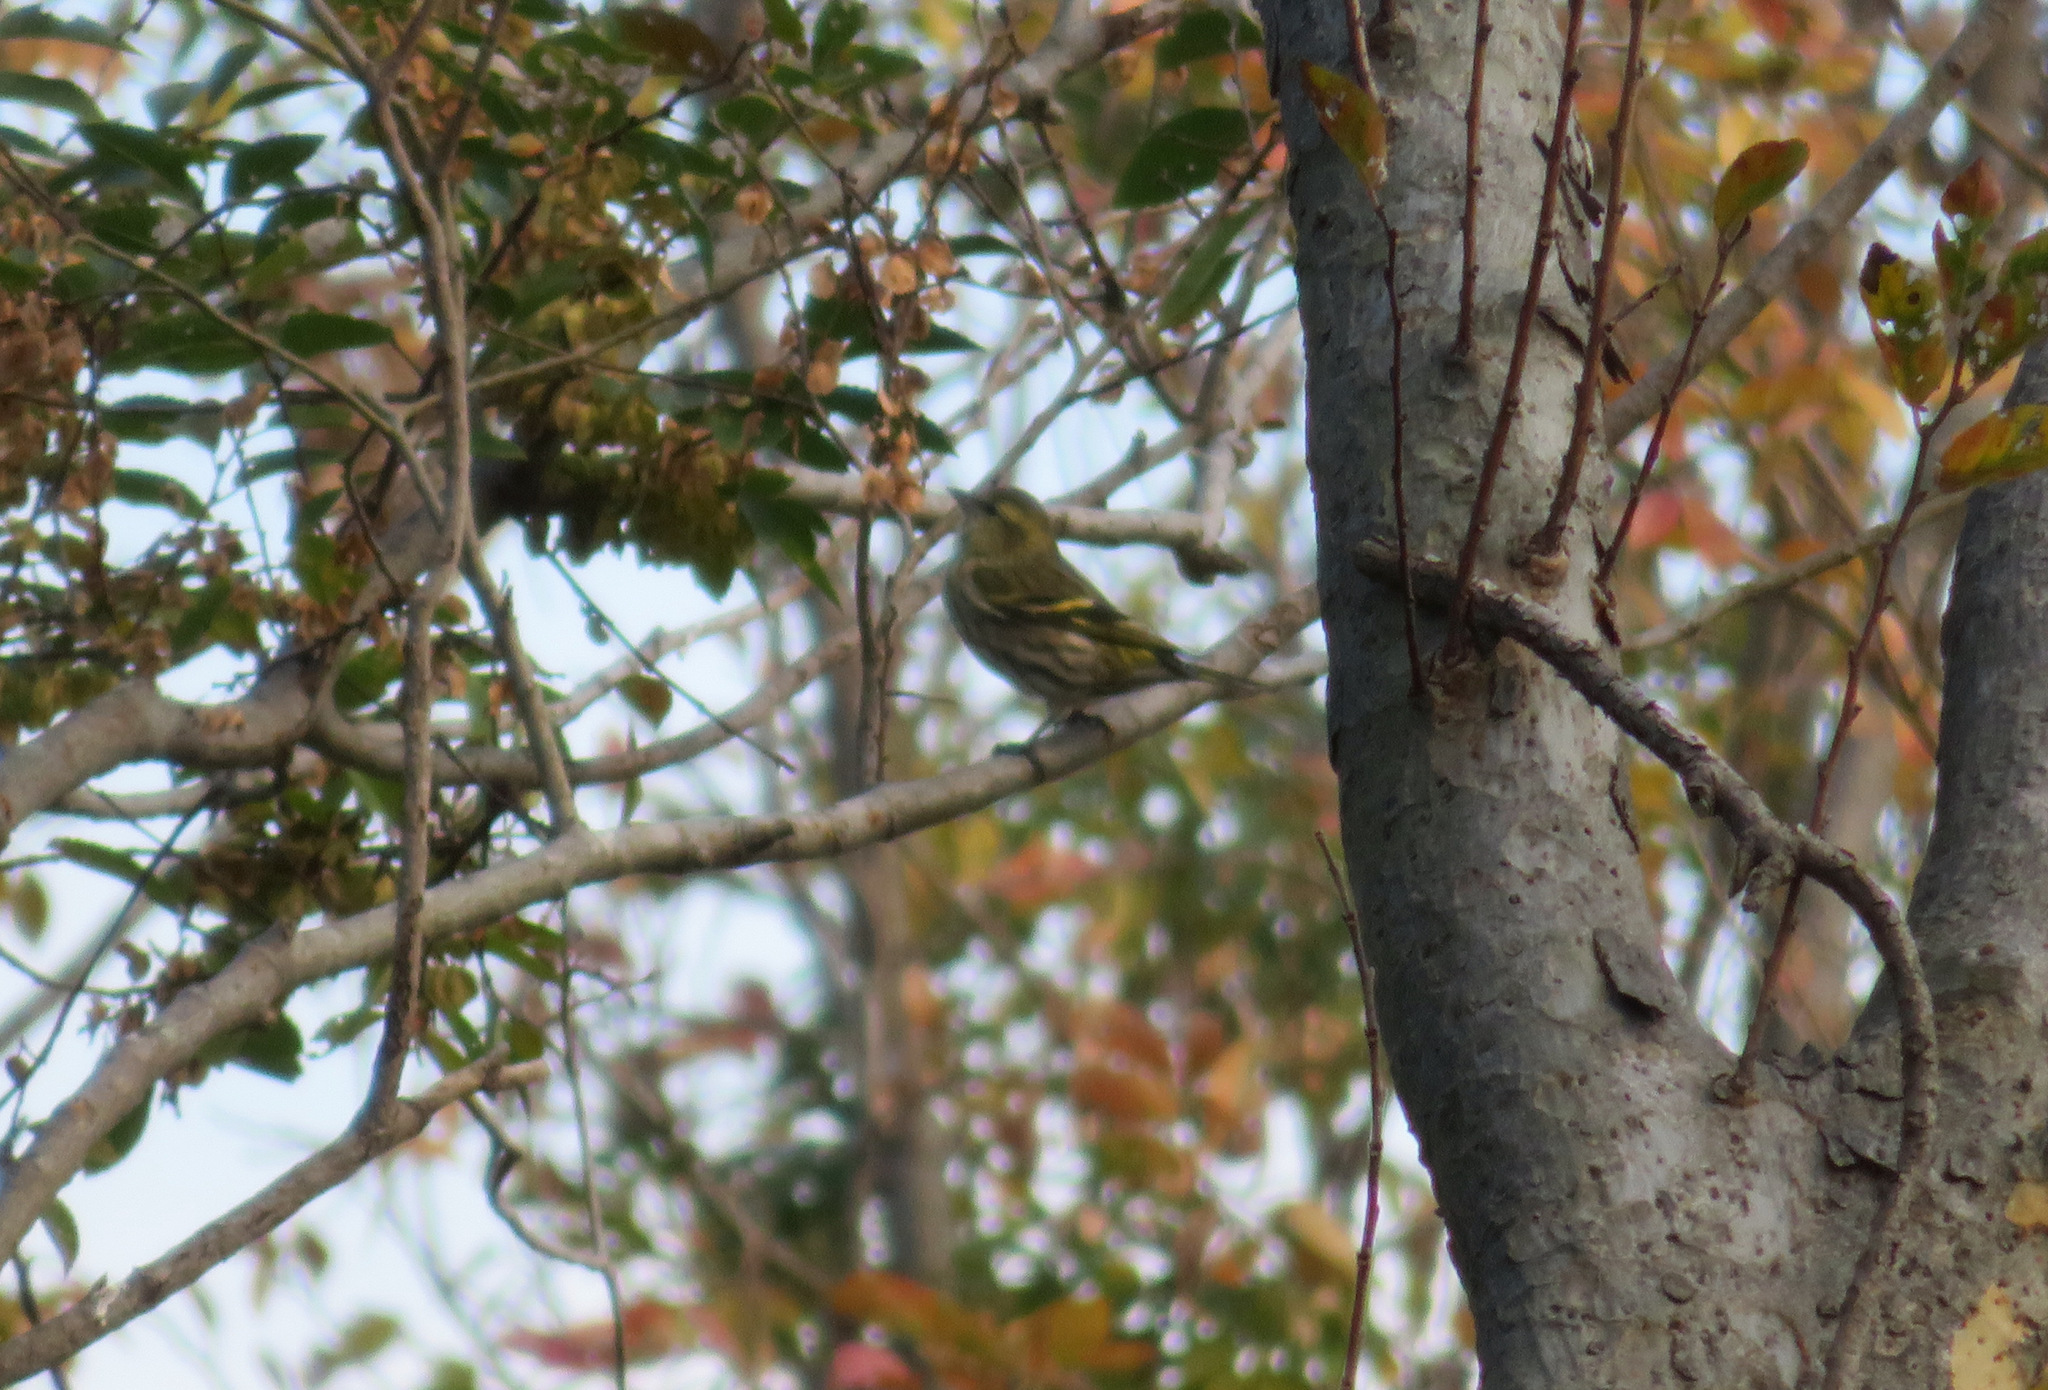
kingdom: Animalia
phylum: Chordata
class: Aves
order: Passeriformes
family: Fringillidae
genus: Spinus
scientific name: Spinus spinus
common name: Eurasian siskin
